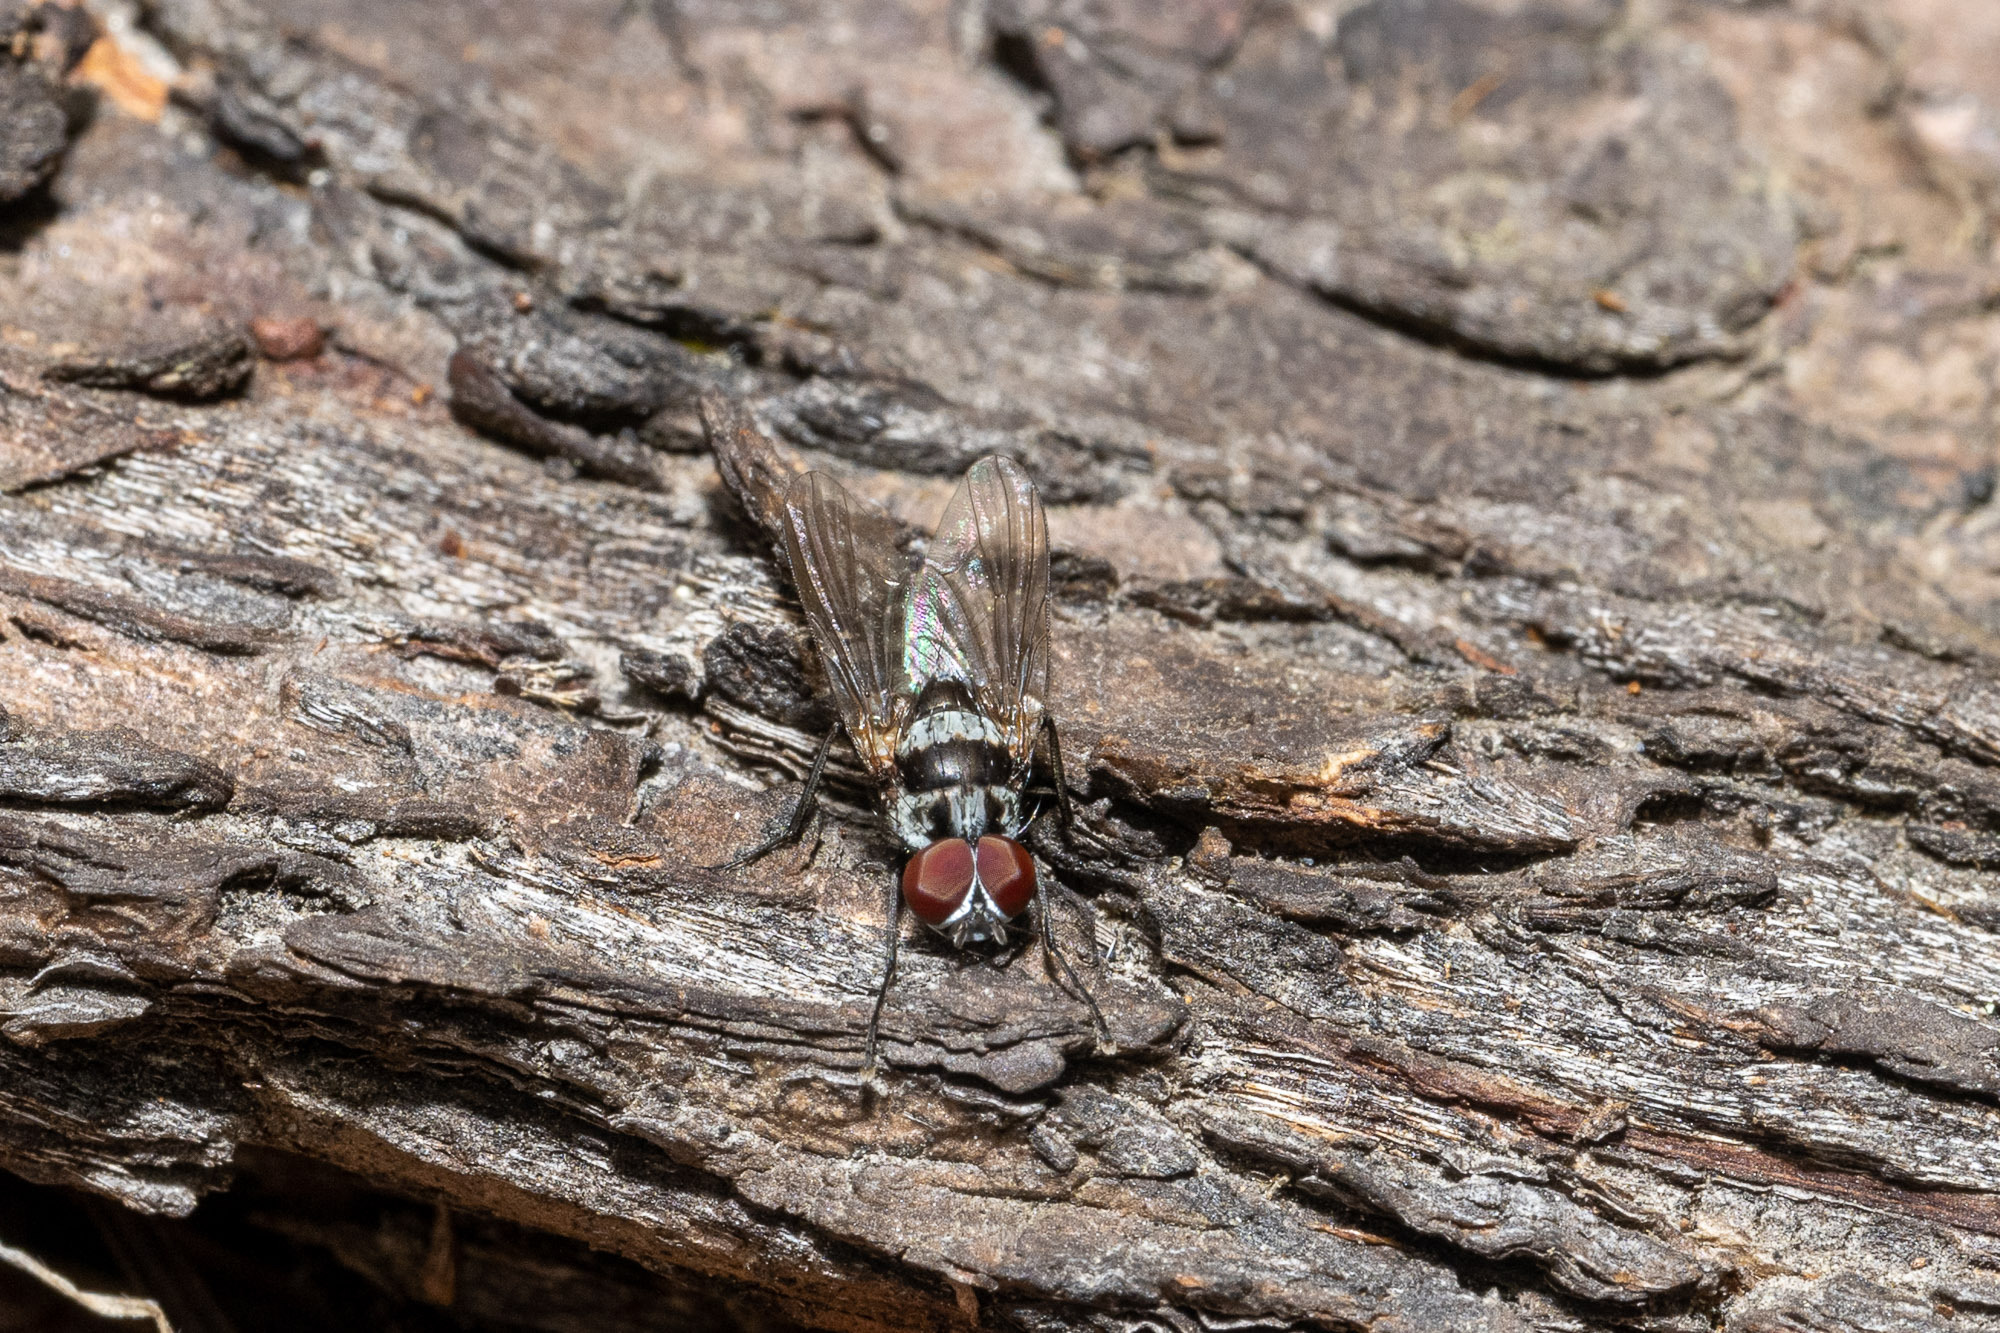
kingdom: Animalia
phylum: Arthropoda
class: Insecta
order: Diptera
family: Anthomyiidae
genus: Anthomyia
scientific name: Anthomyia oculifera
